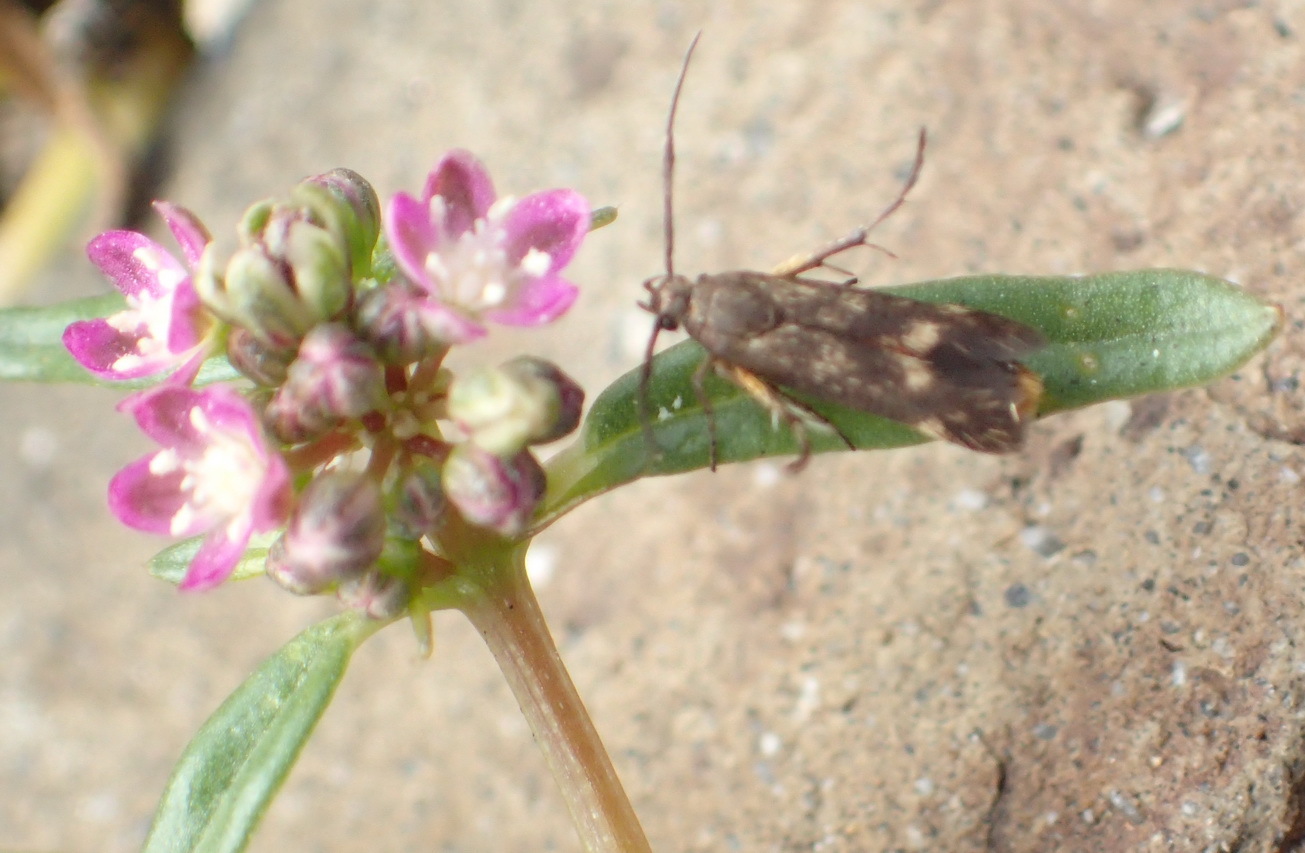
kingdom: Plantae
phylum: Tracheophyta
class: Magnoliopsida
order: Caryophyllales
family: Gisekiaceae
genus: Gisekia
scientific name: Gisekia pharnaceoides
